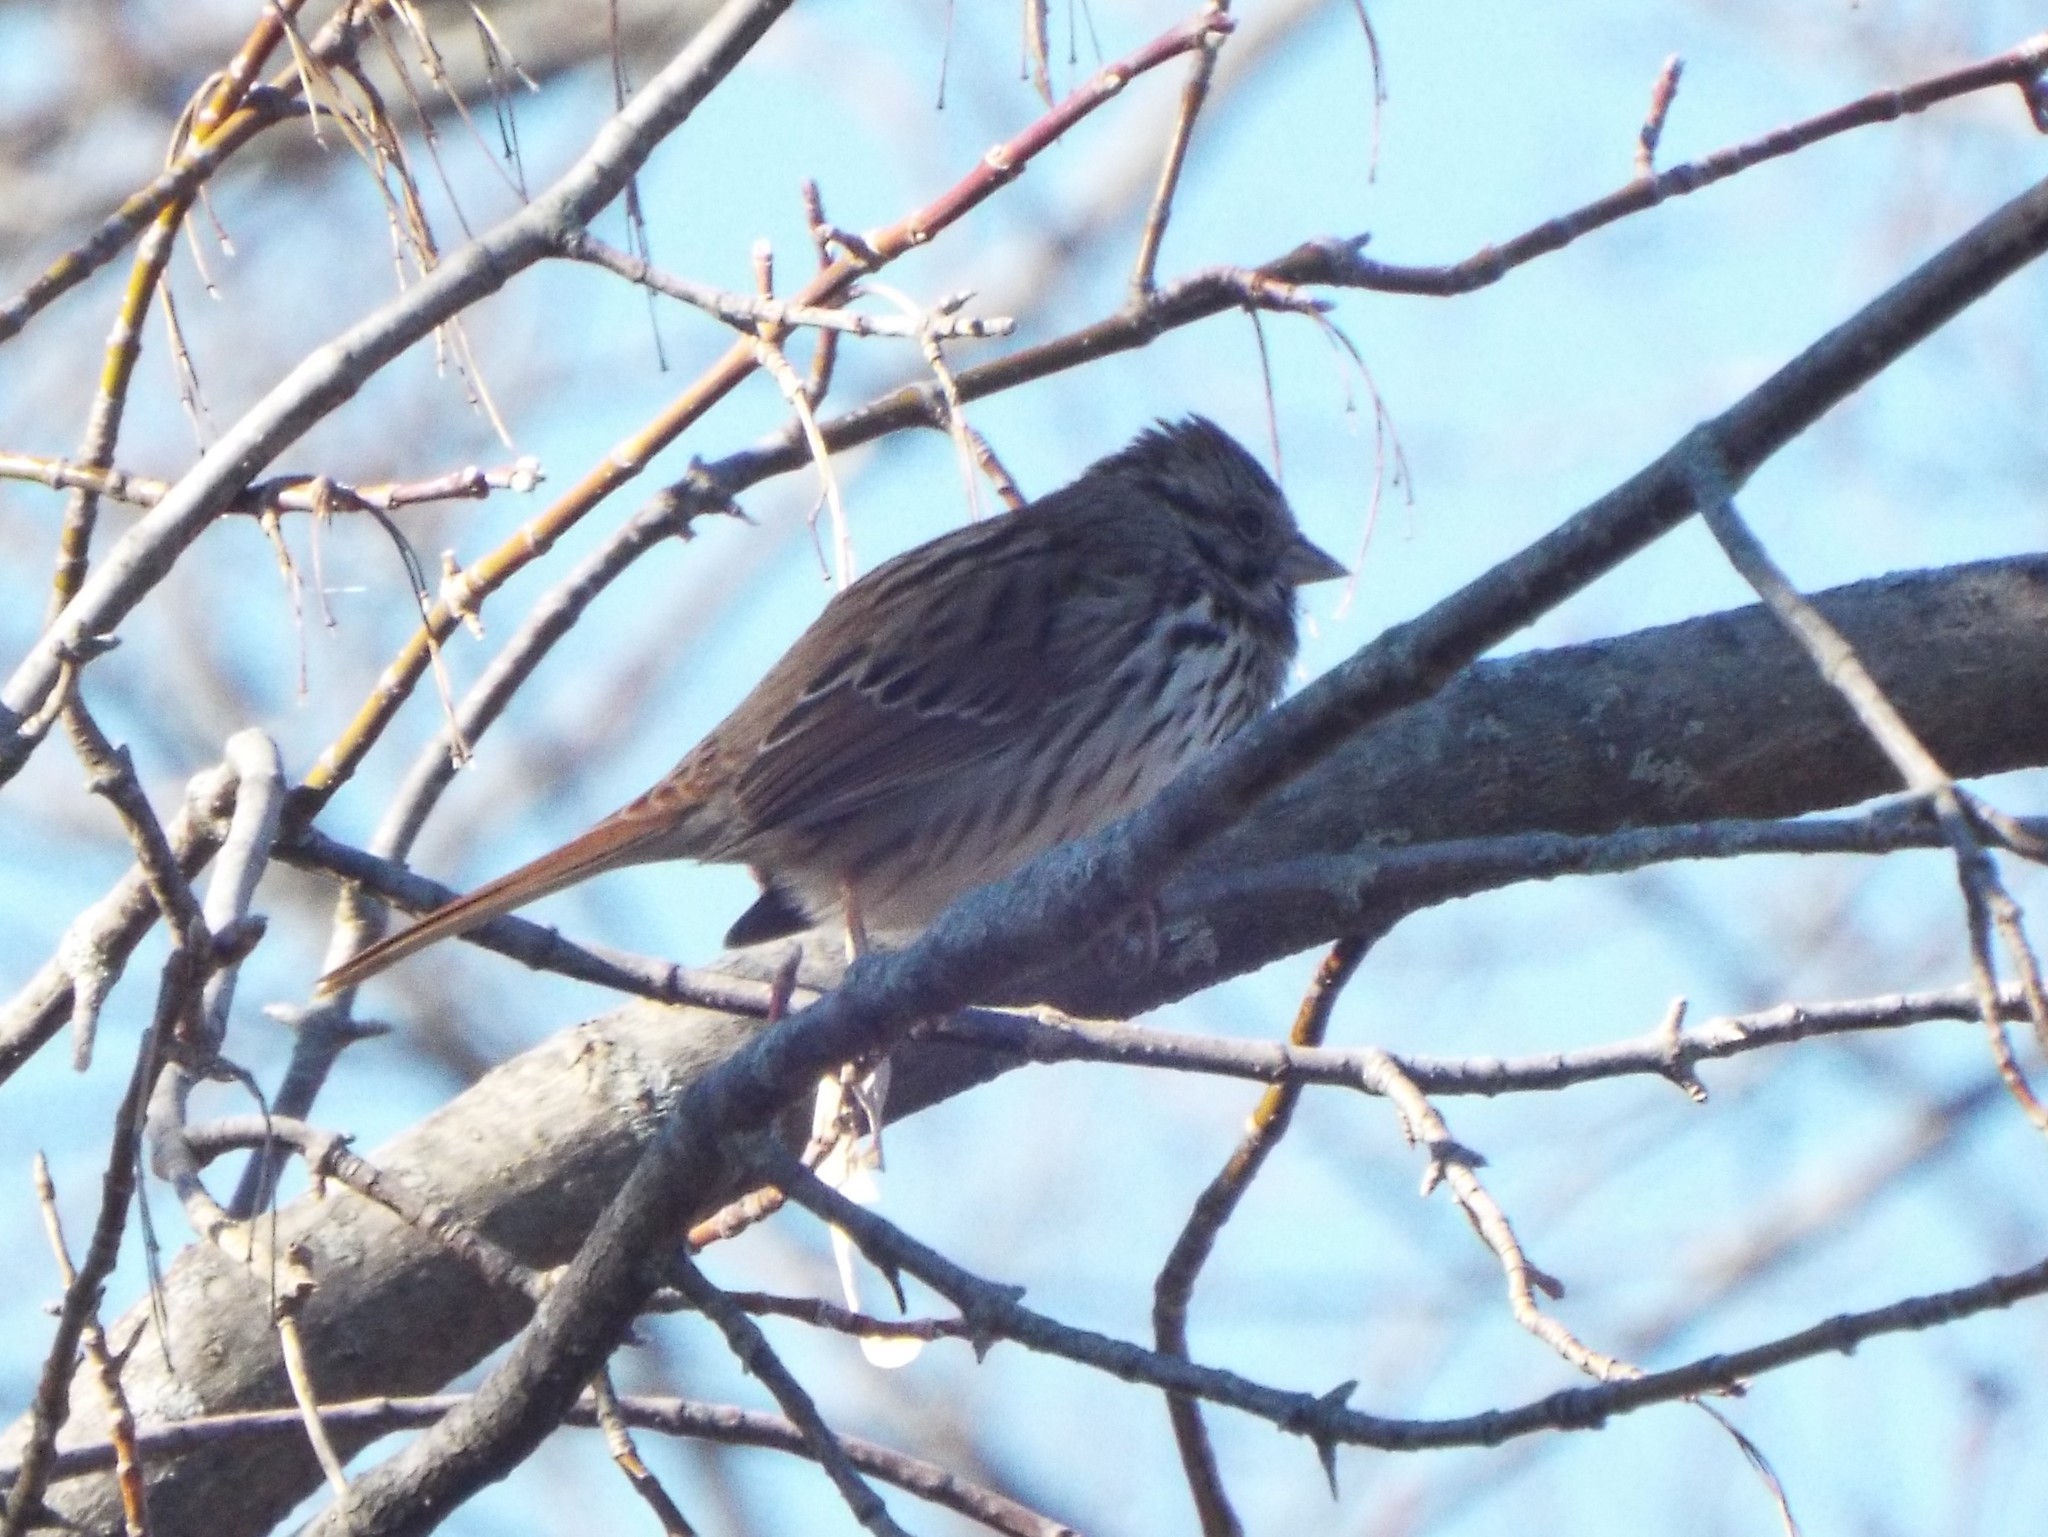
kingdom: Animalia
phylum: Chordata
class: Aves
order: Passeriformes
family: Passerellidae
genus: Melospiza
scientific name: Melospiza melodia
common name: Song sparrow
